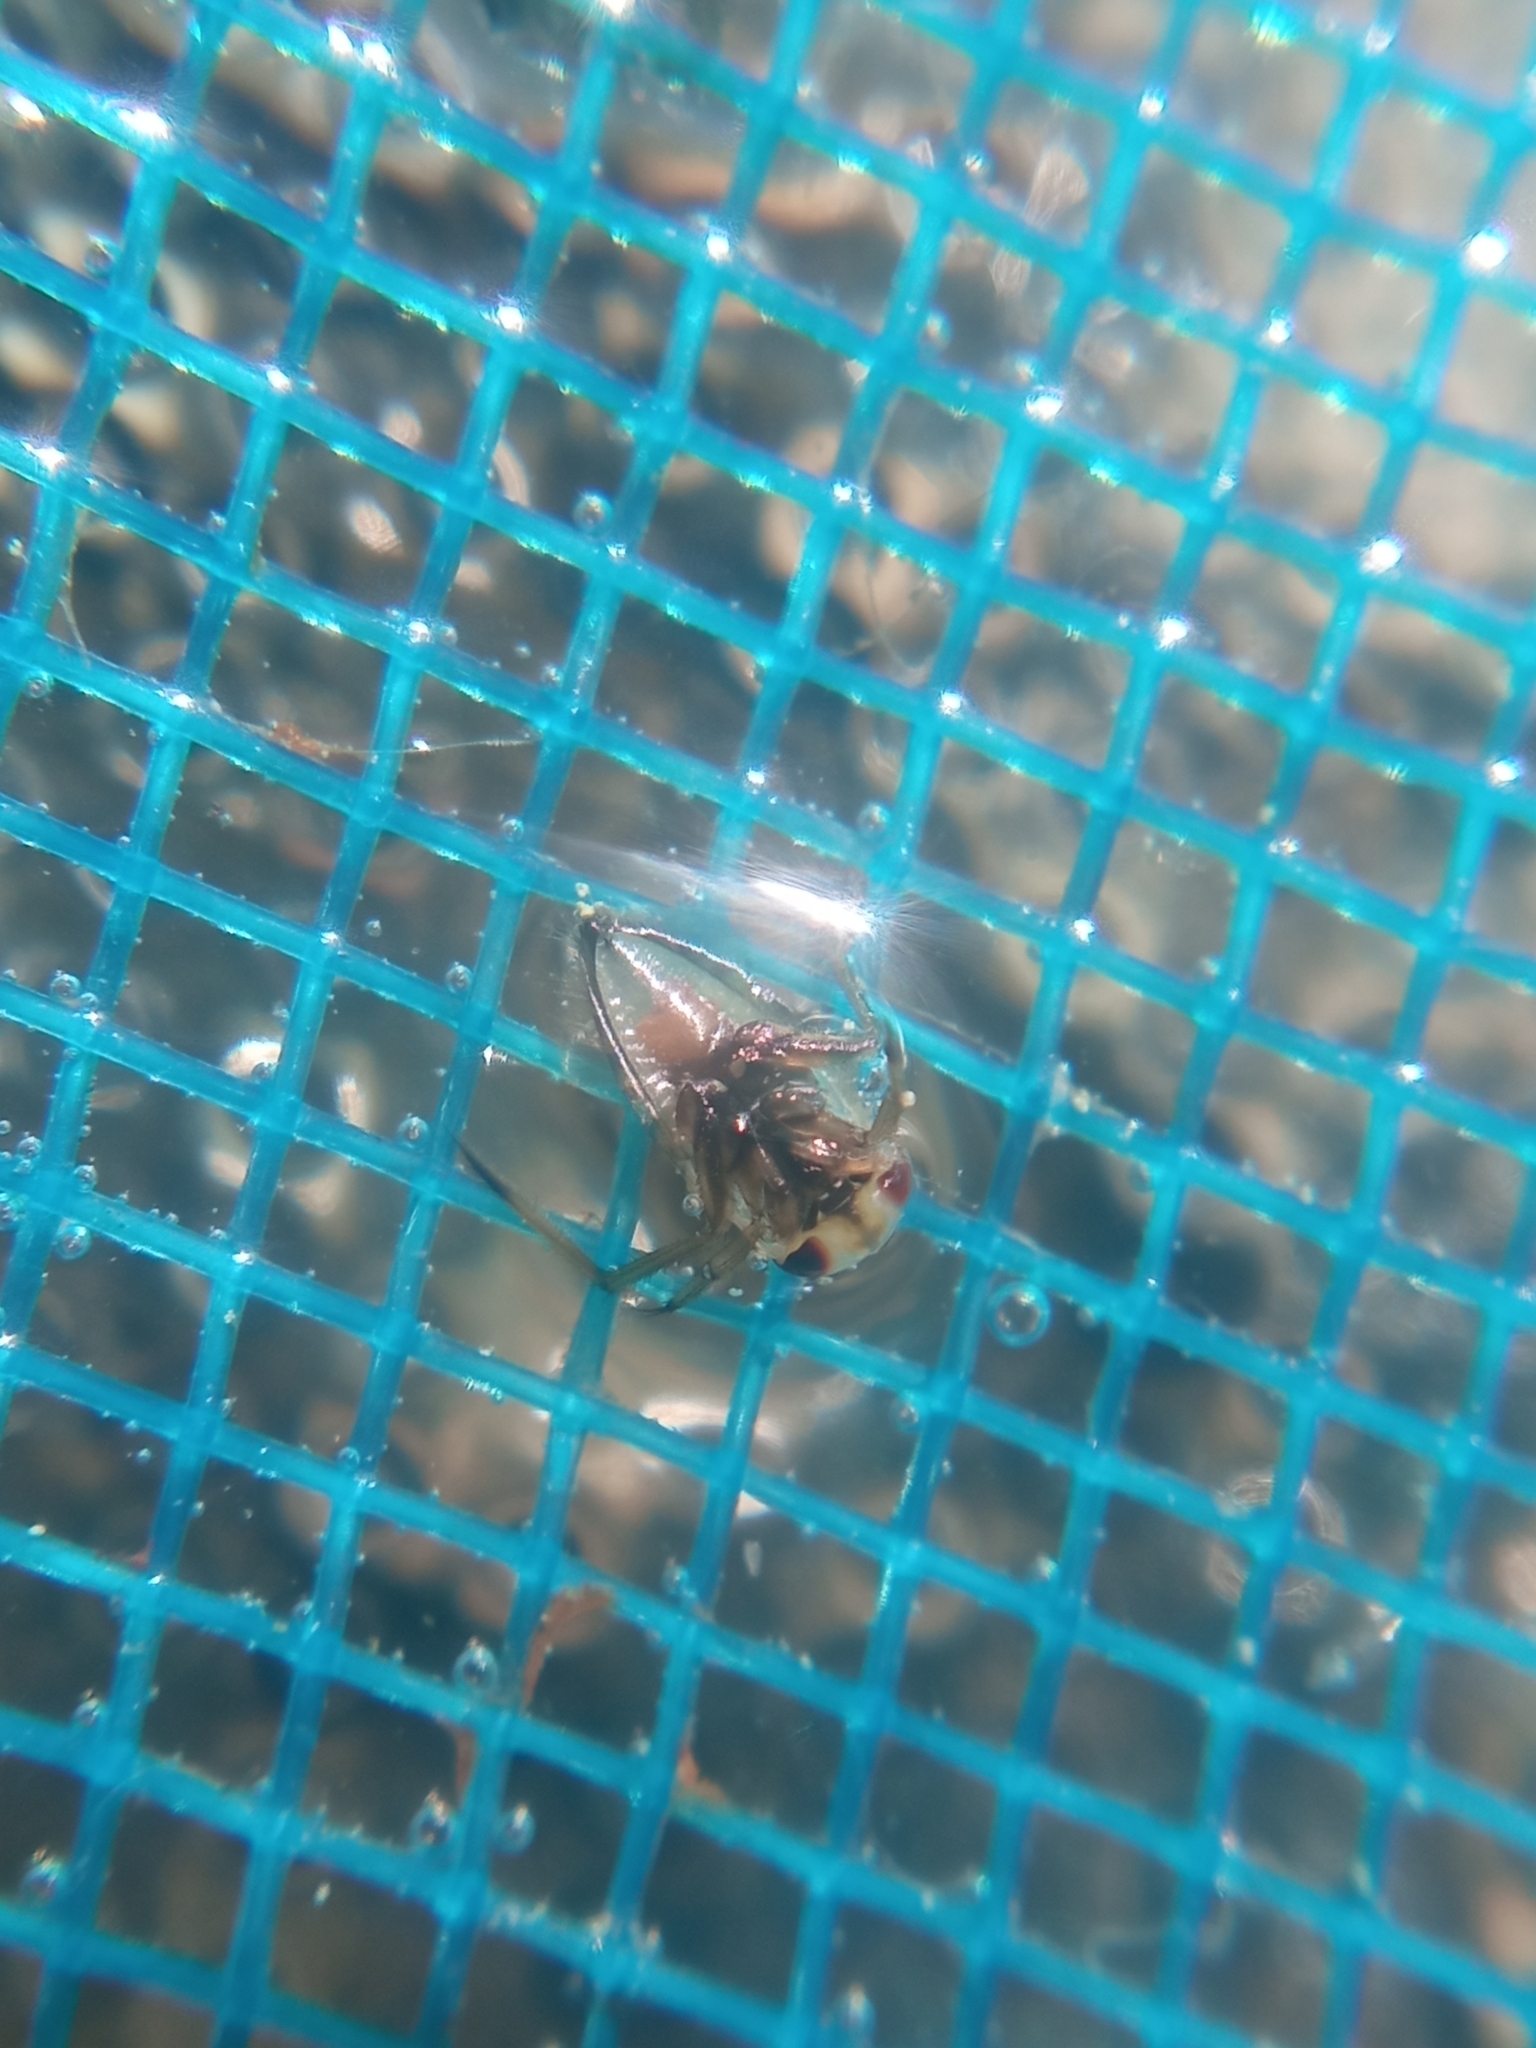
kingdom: Animalia
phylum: Arthropoda
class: Insecta
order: Hemiptera
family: Notonectidae
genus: Notonecta
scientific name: Notonecta
